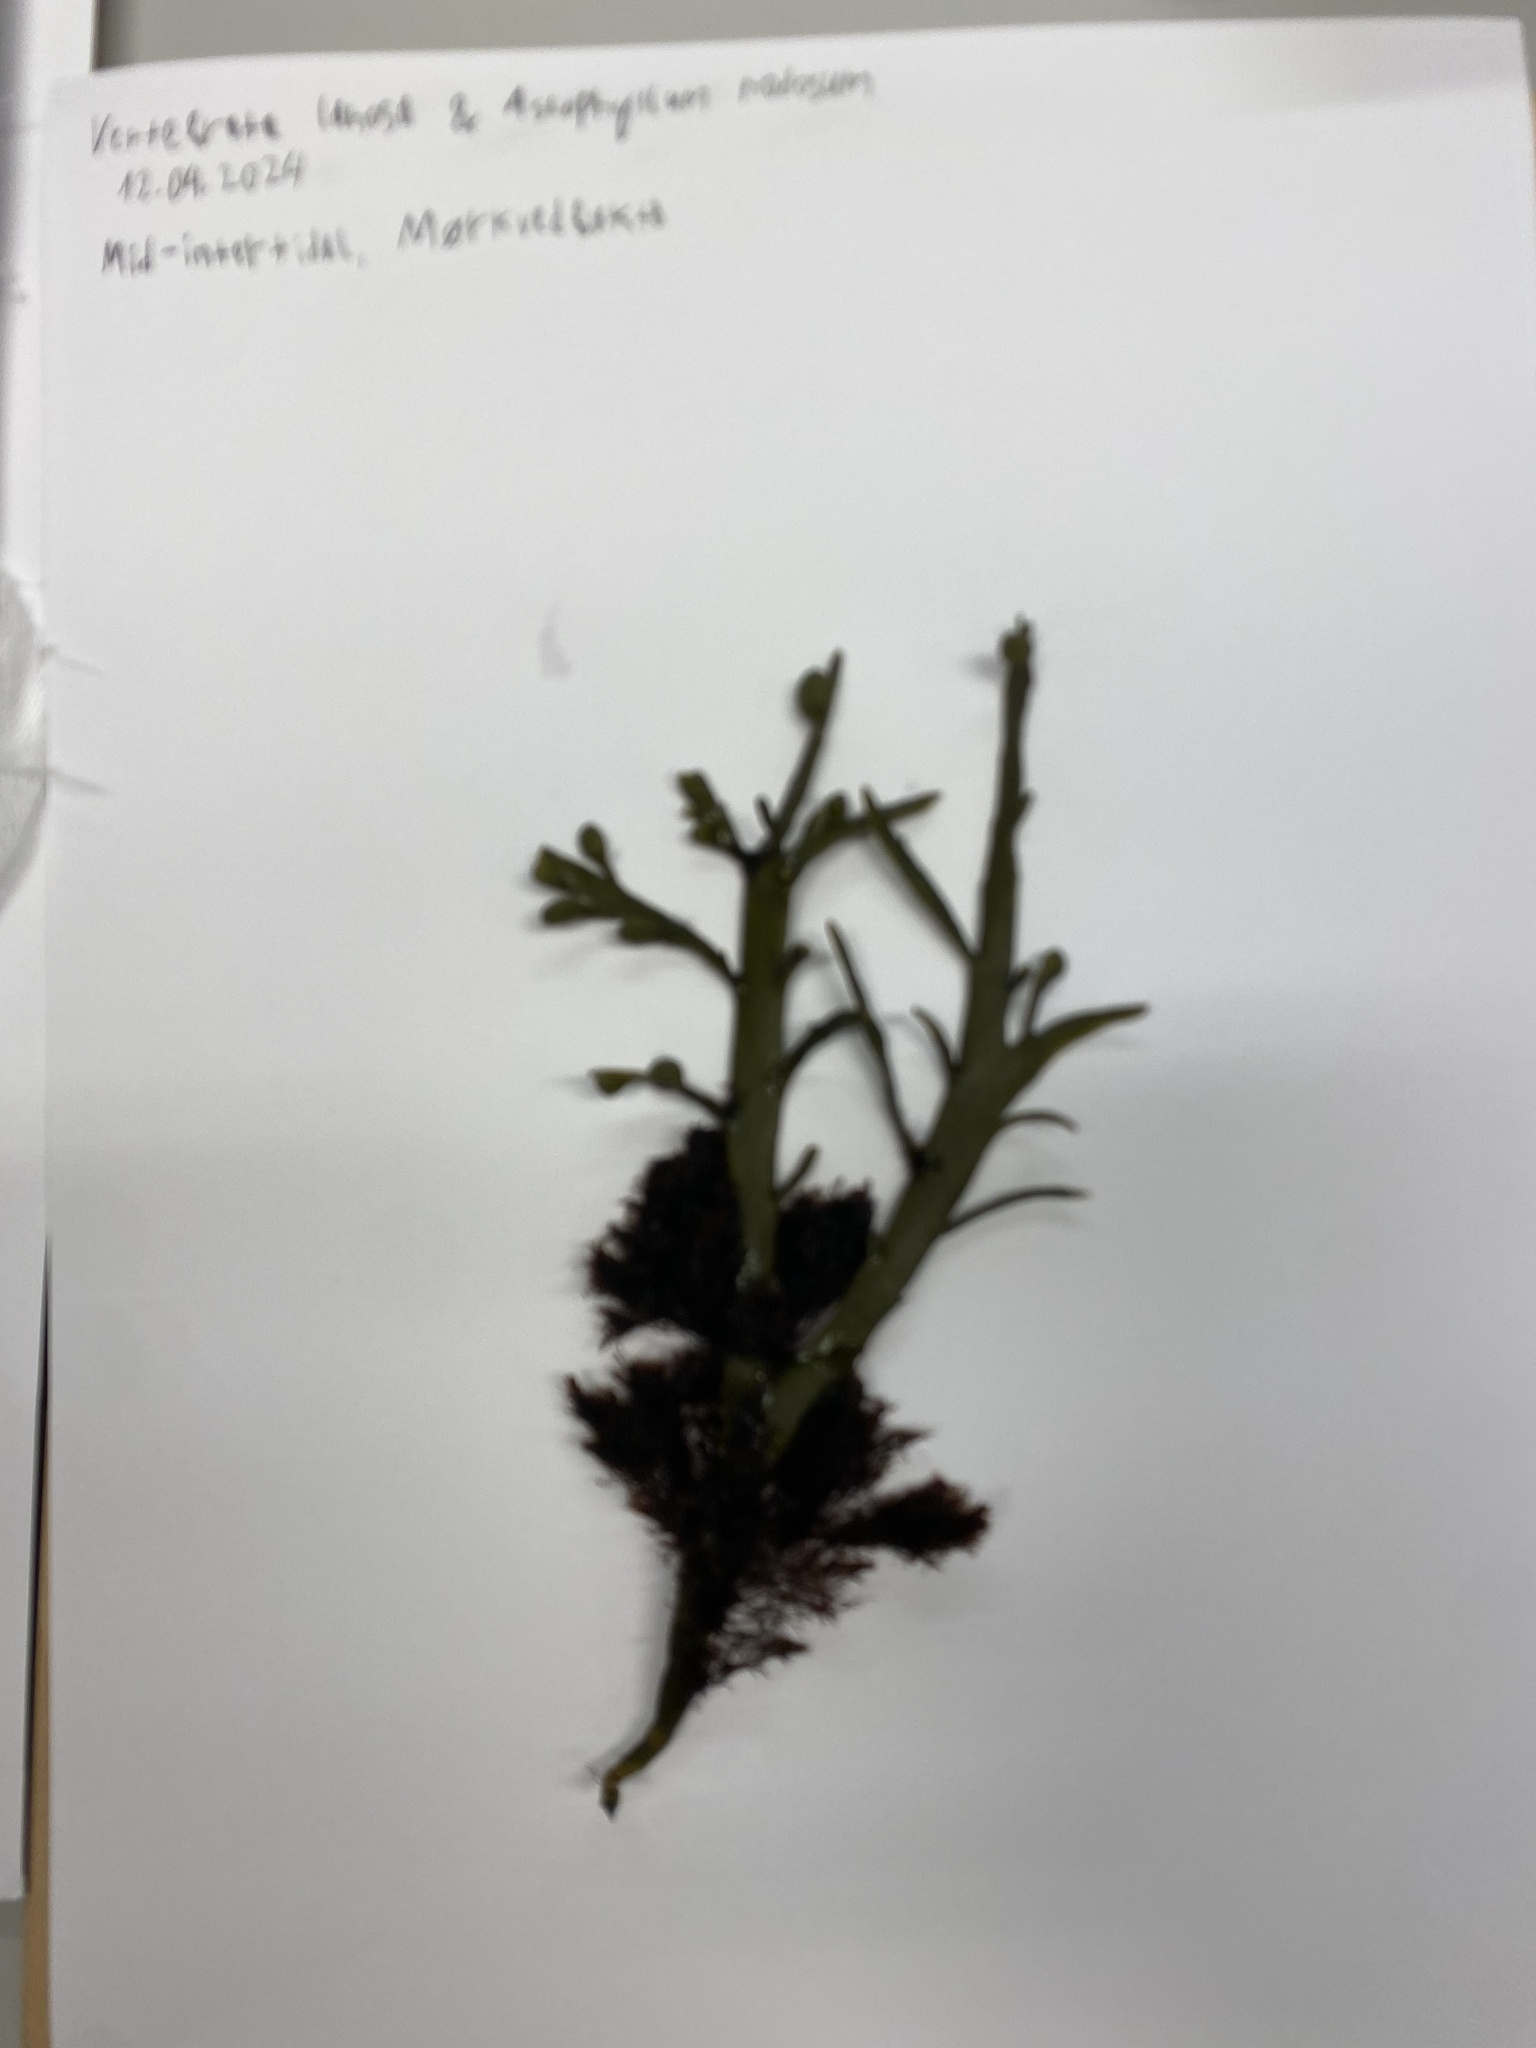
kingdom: Plantae
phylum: Rhodophyta
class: Florideophyceae
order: Ceramiales
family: Rhodomelaceae
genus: Vertebrata
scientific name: Vertebrata lanosa
